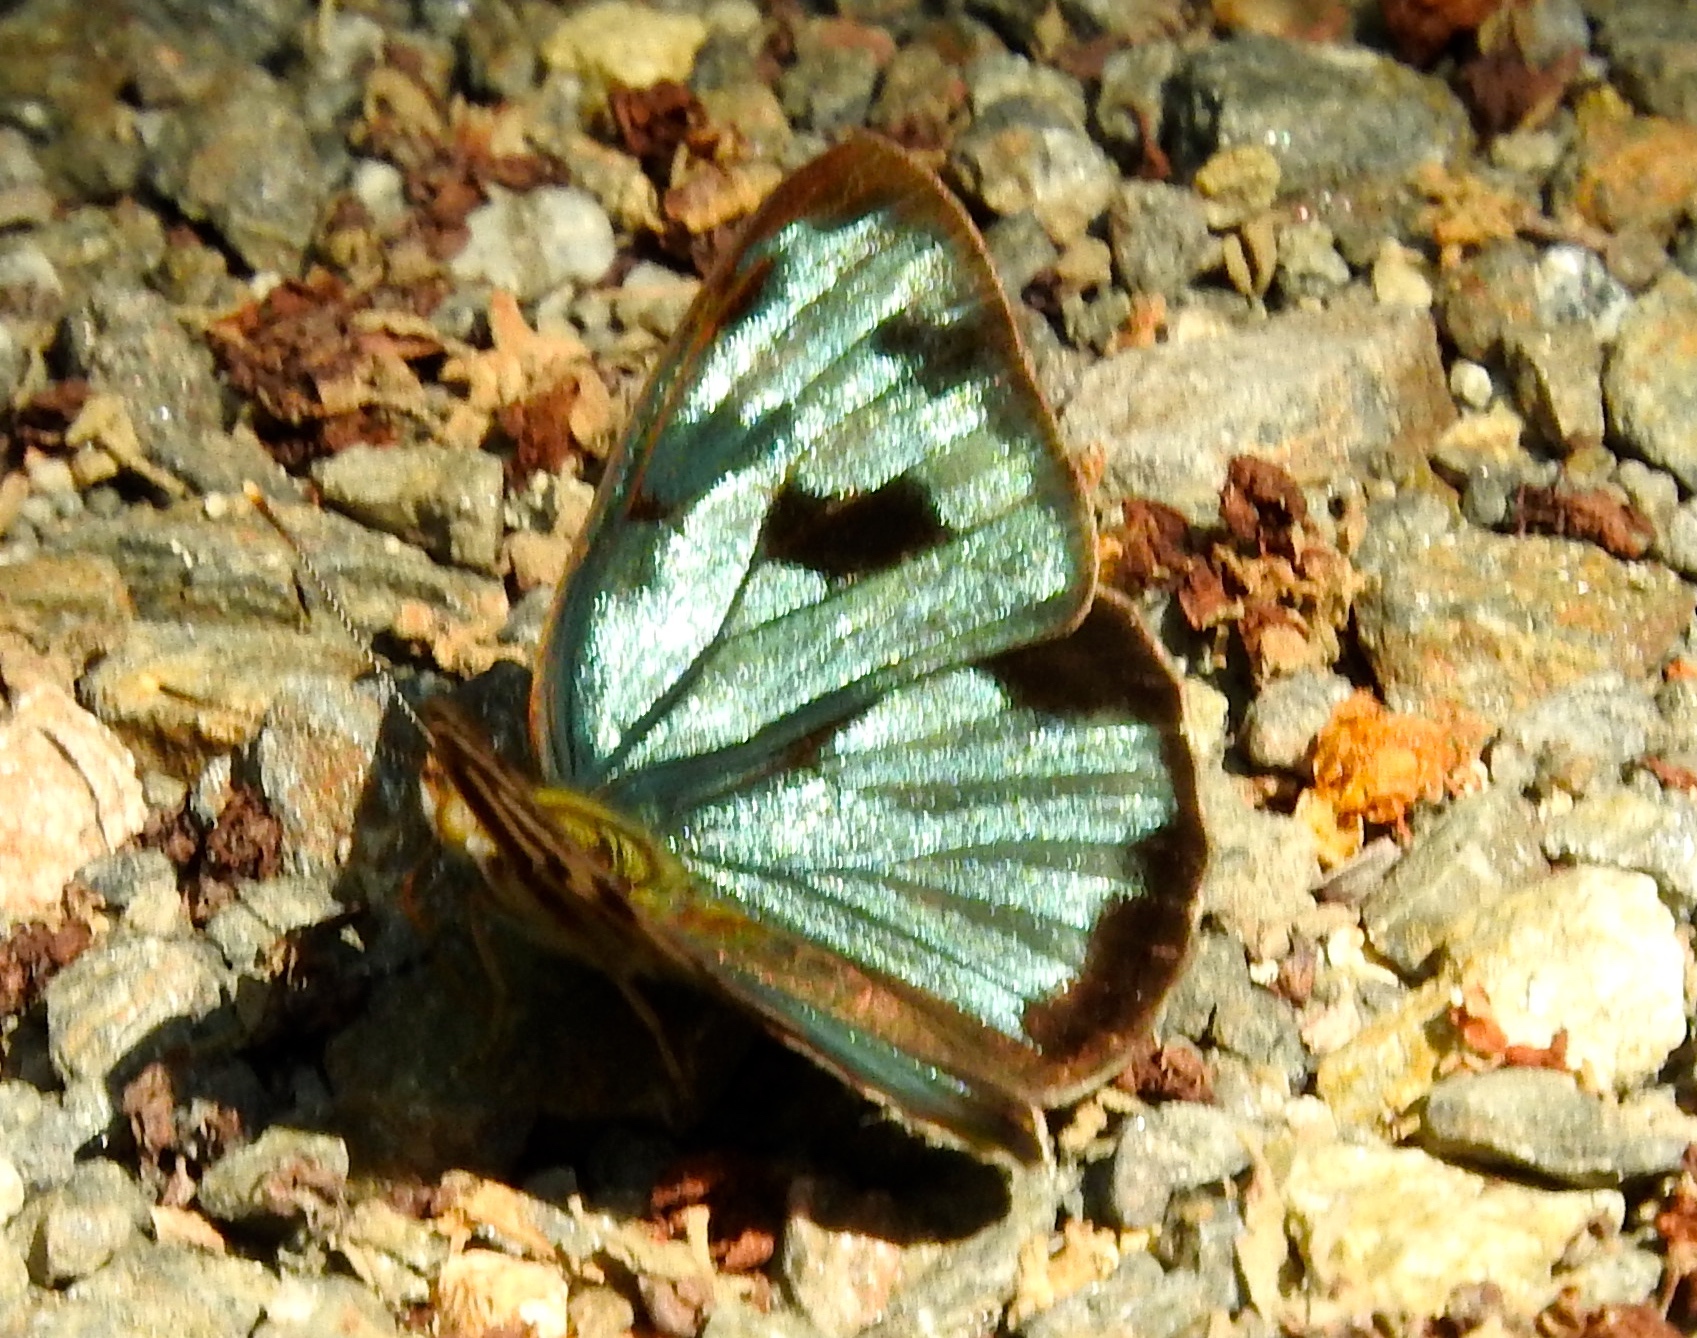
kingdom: Animalia
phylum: Arthropoda
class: Insecta
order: Lepidoptera
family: Nymphalidae
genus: Dynamine
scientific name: Dynamine mylitta
